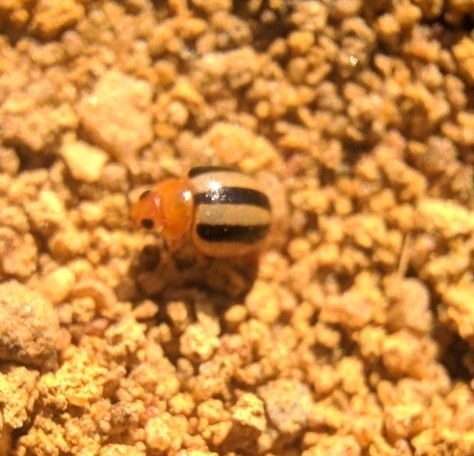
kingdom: Animalia
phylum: Arthropoda
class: Insecta
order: Coleoptera
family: Coccinellidae
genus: Brumoides
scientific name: Brumoides suturalis
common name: Threestriped lady beetle
